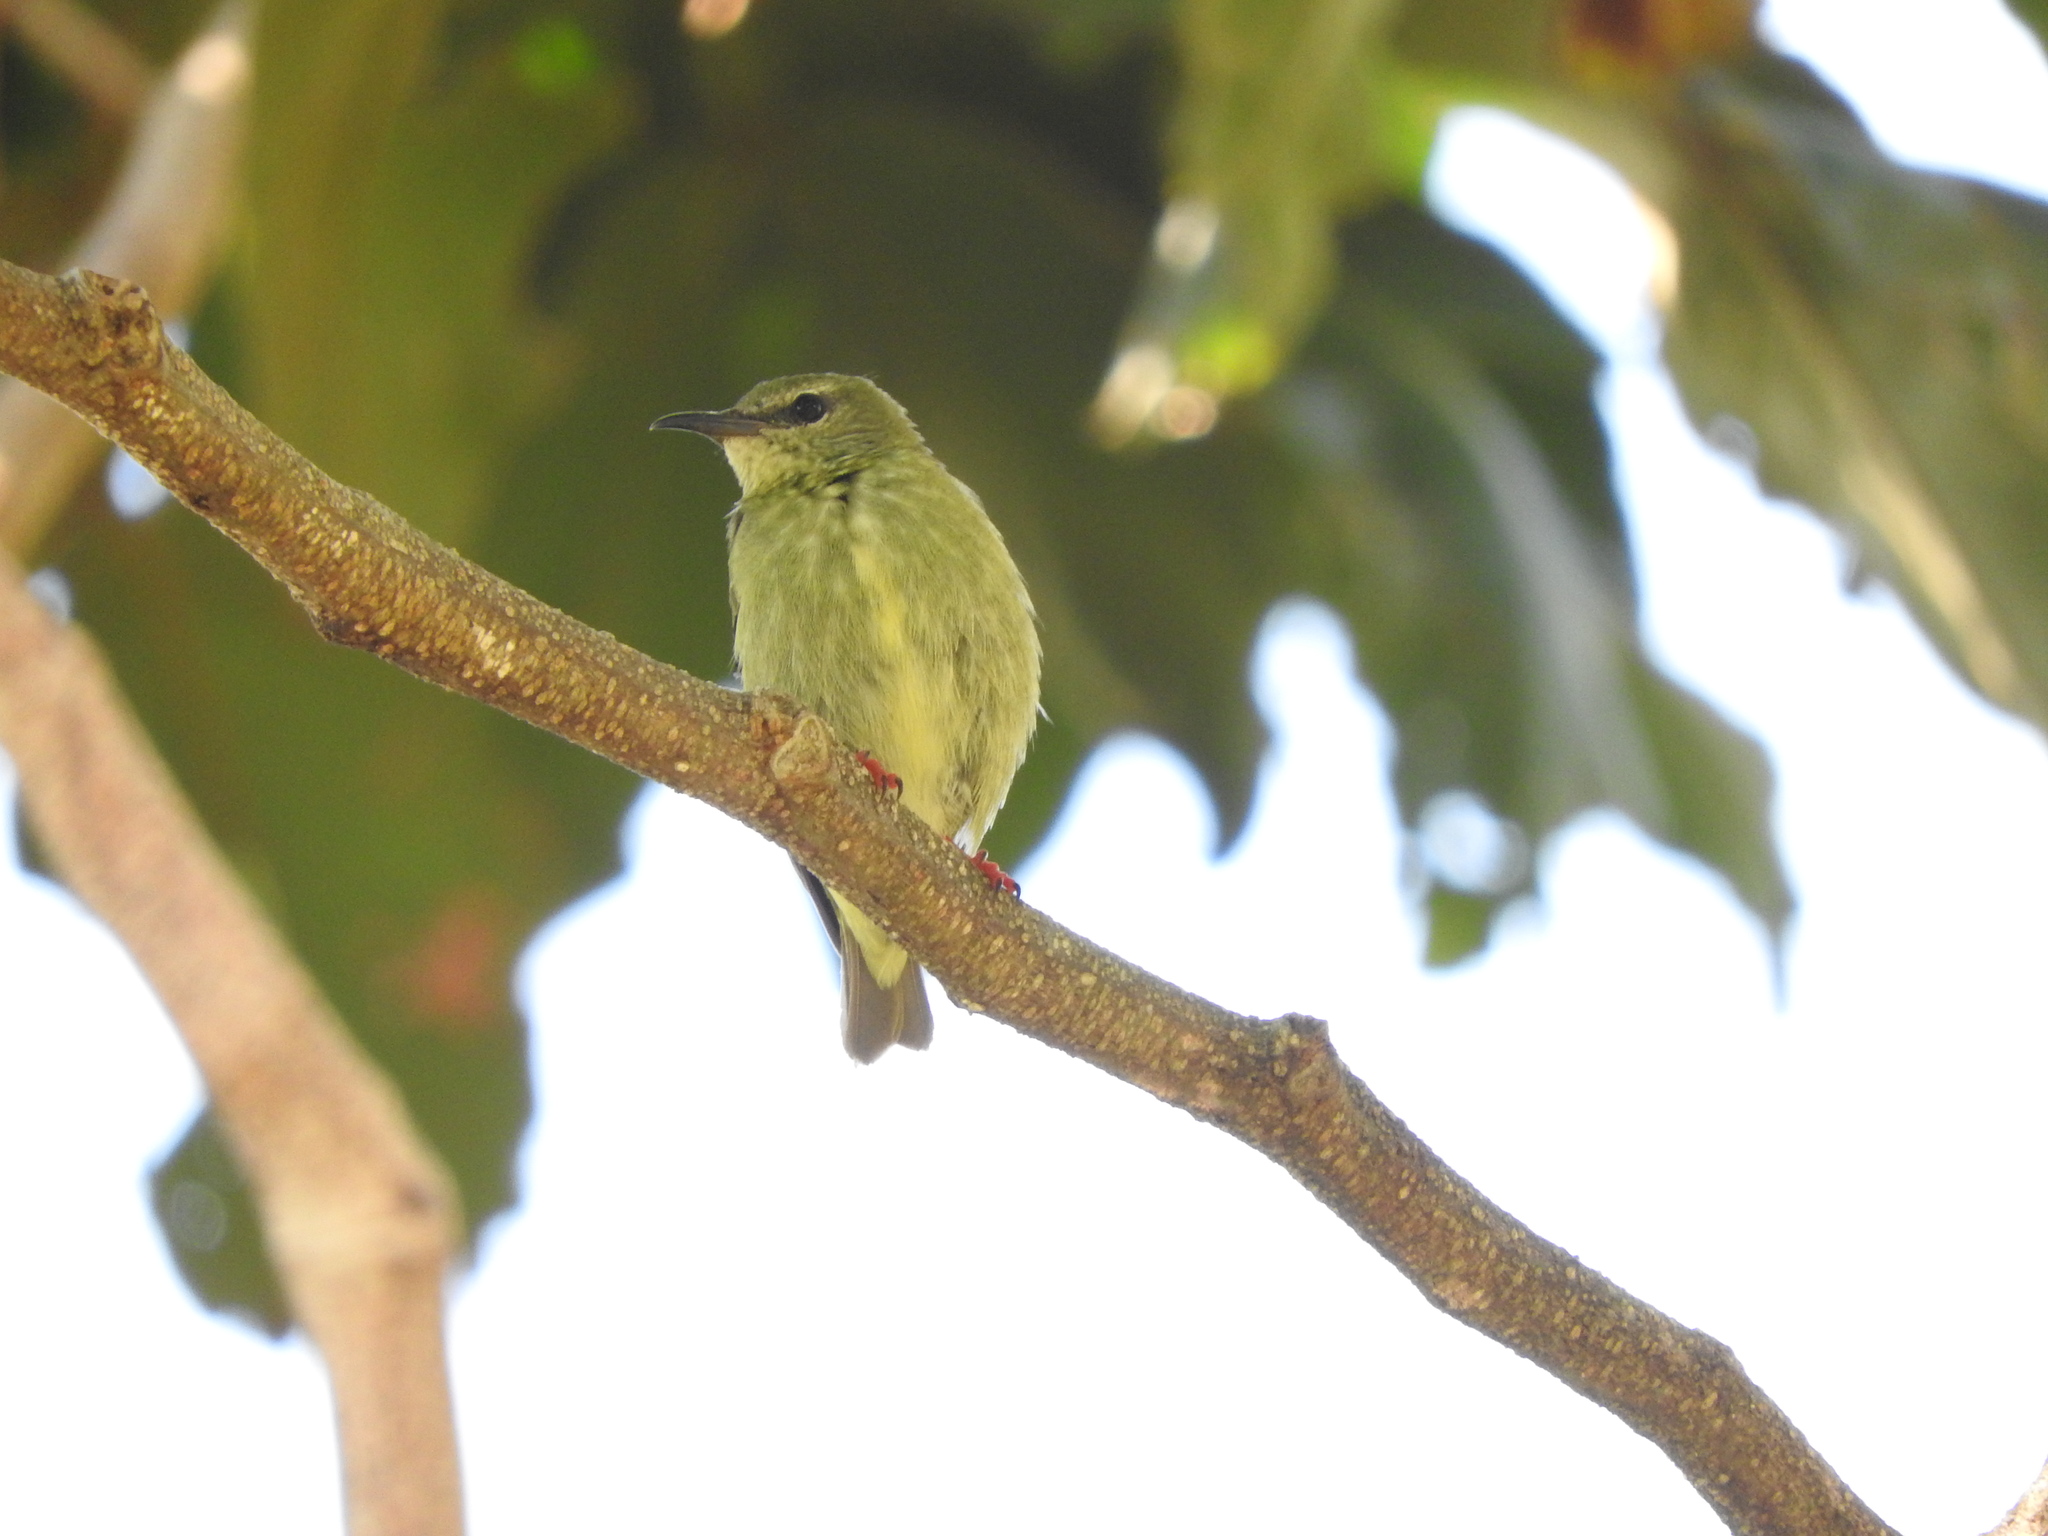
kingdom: Animalia
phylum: Chordata
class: Aves
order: Passeriformes
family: Thraupidae
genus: Cyanerpes
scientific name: Cyanerpes cyaneus
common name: Red-legged honeycreeper
